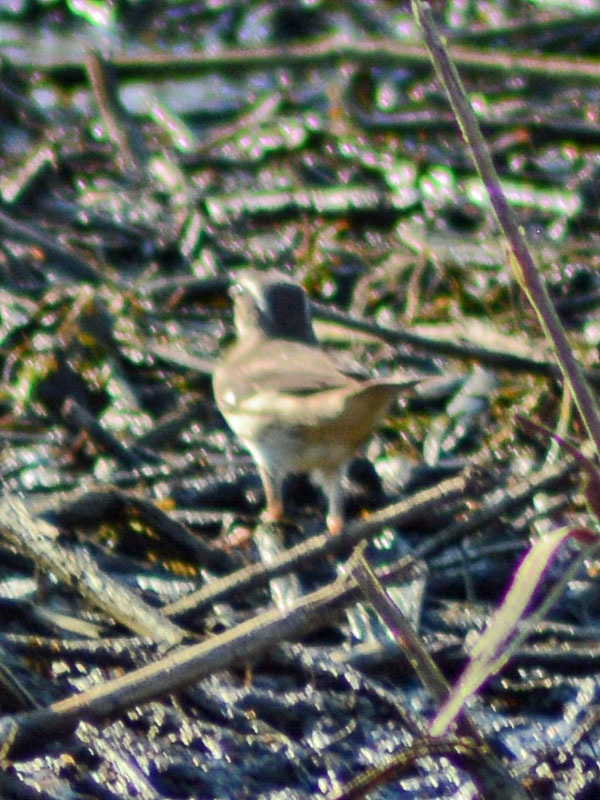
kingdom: Animalia
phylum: Chordata
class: Aves
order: Passeriformes
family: Tyrannidae
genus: Myiozetetes
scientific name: Myiozetetes similis
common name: Social flycatcher
